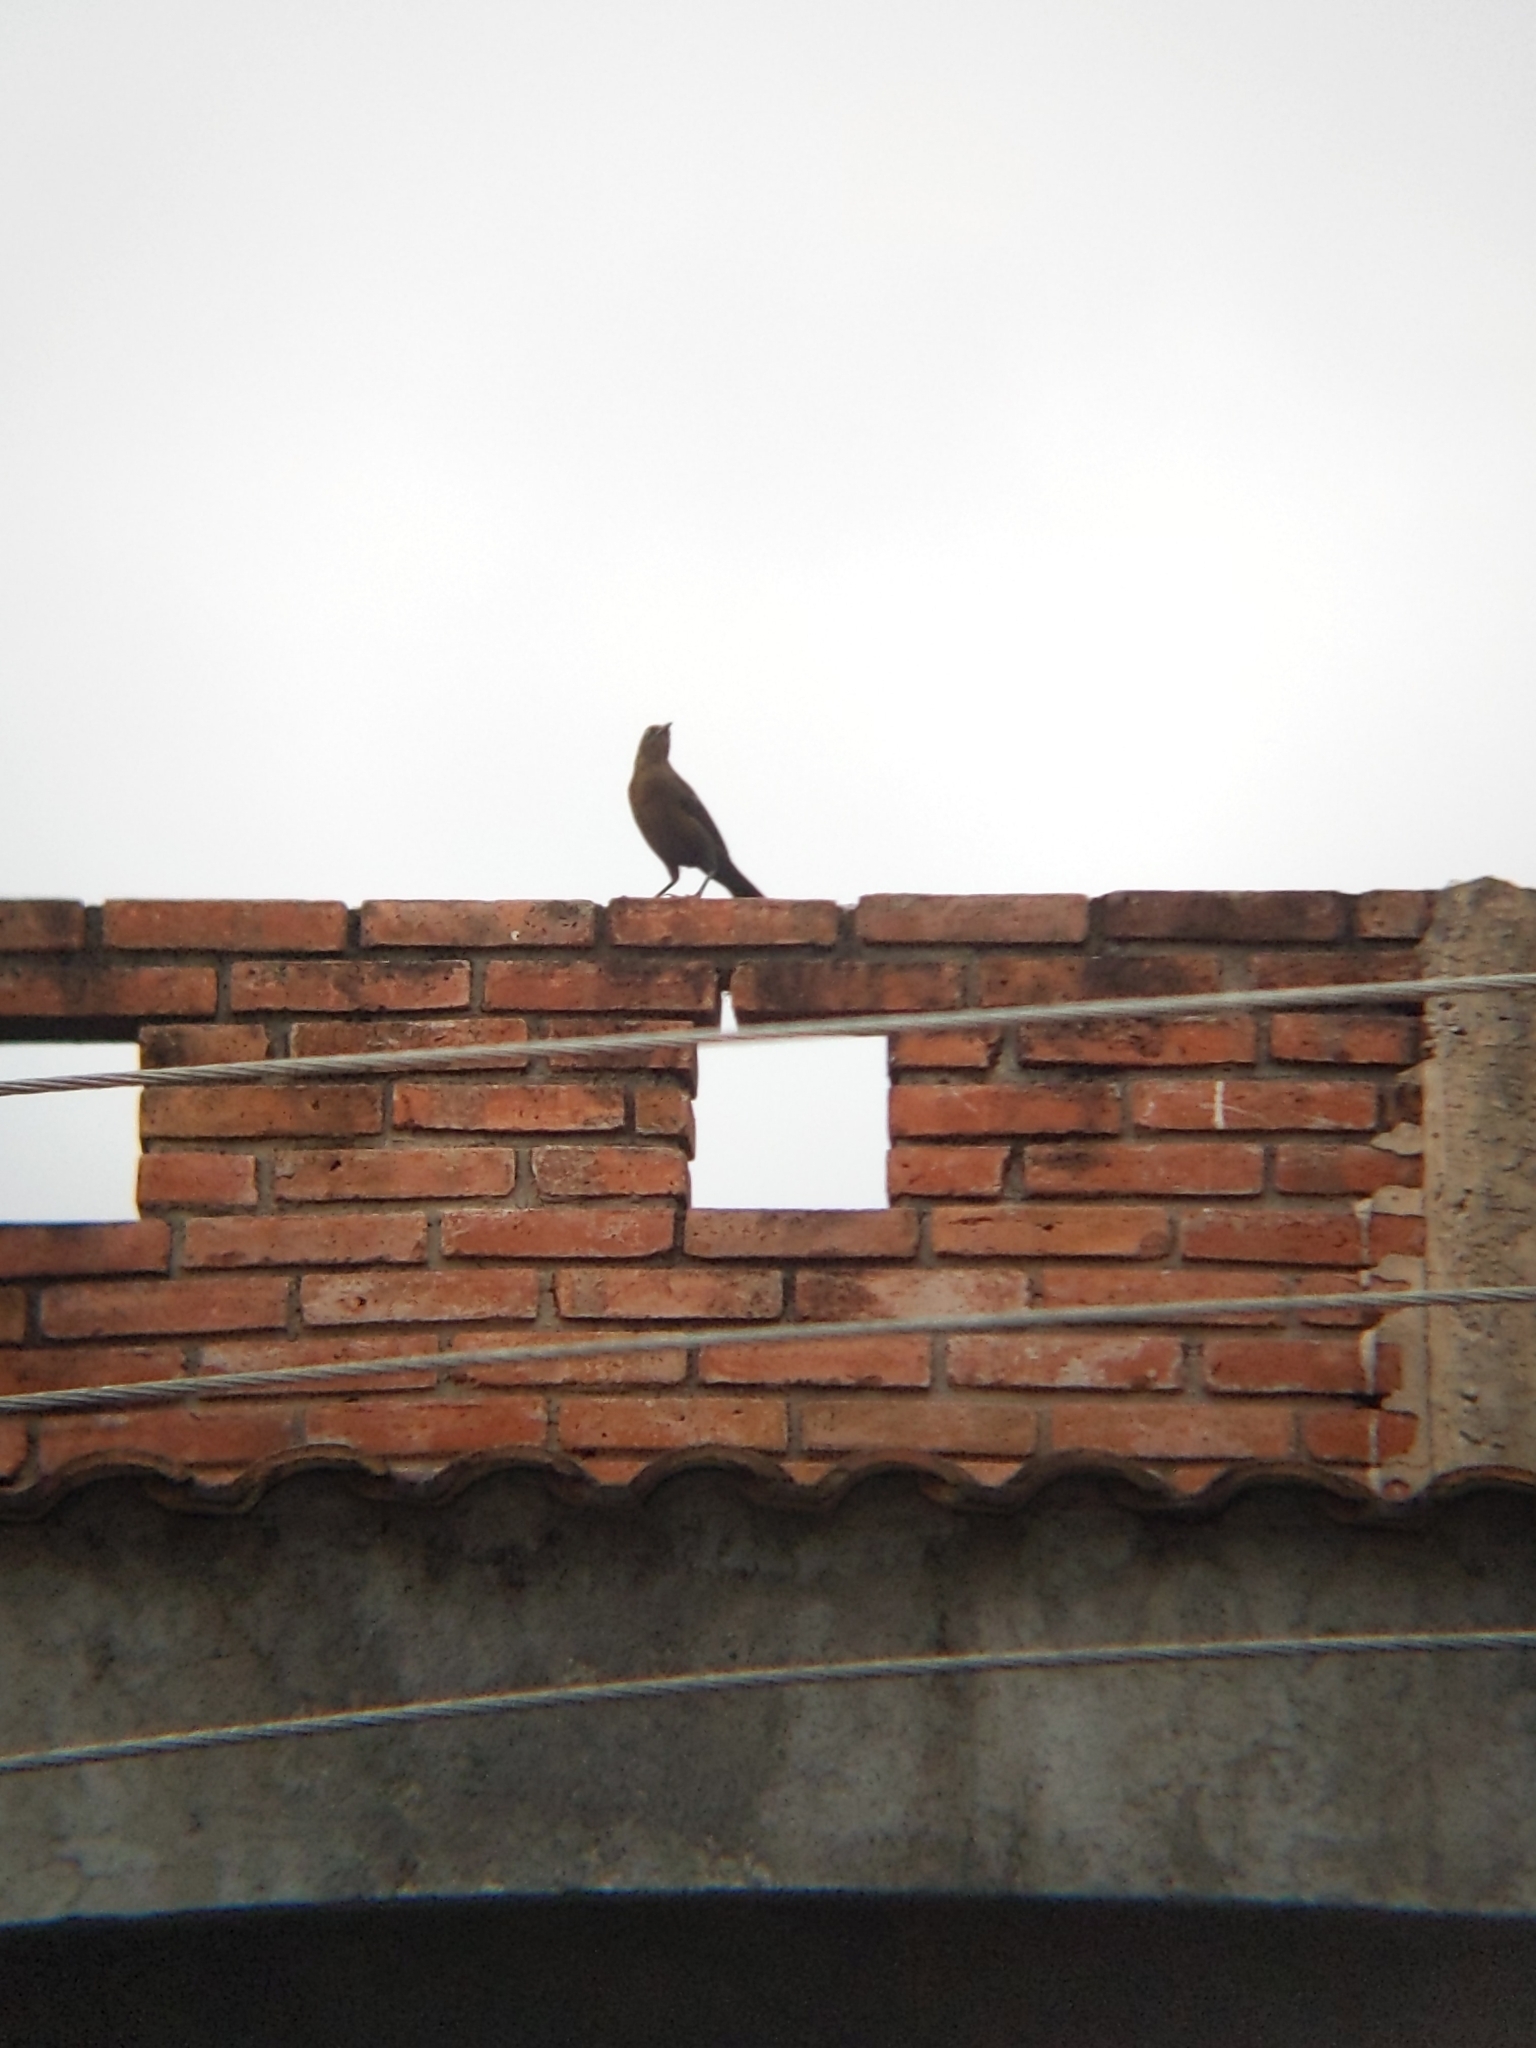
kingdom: Animalia
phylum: Chordata
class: Aves
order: Passeriformes
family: Icteridae
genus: Quiscalus
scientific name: Quiscalus mexicanus
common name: Great-tailed grackle
